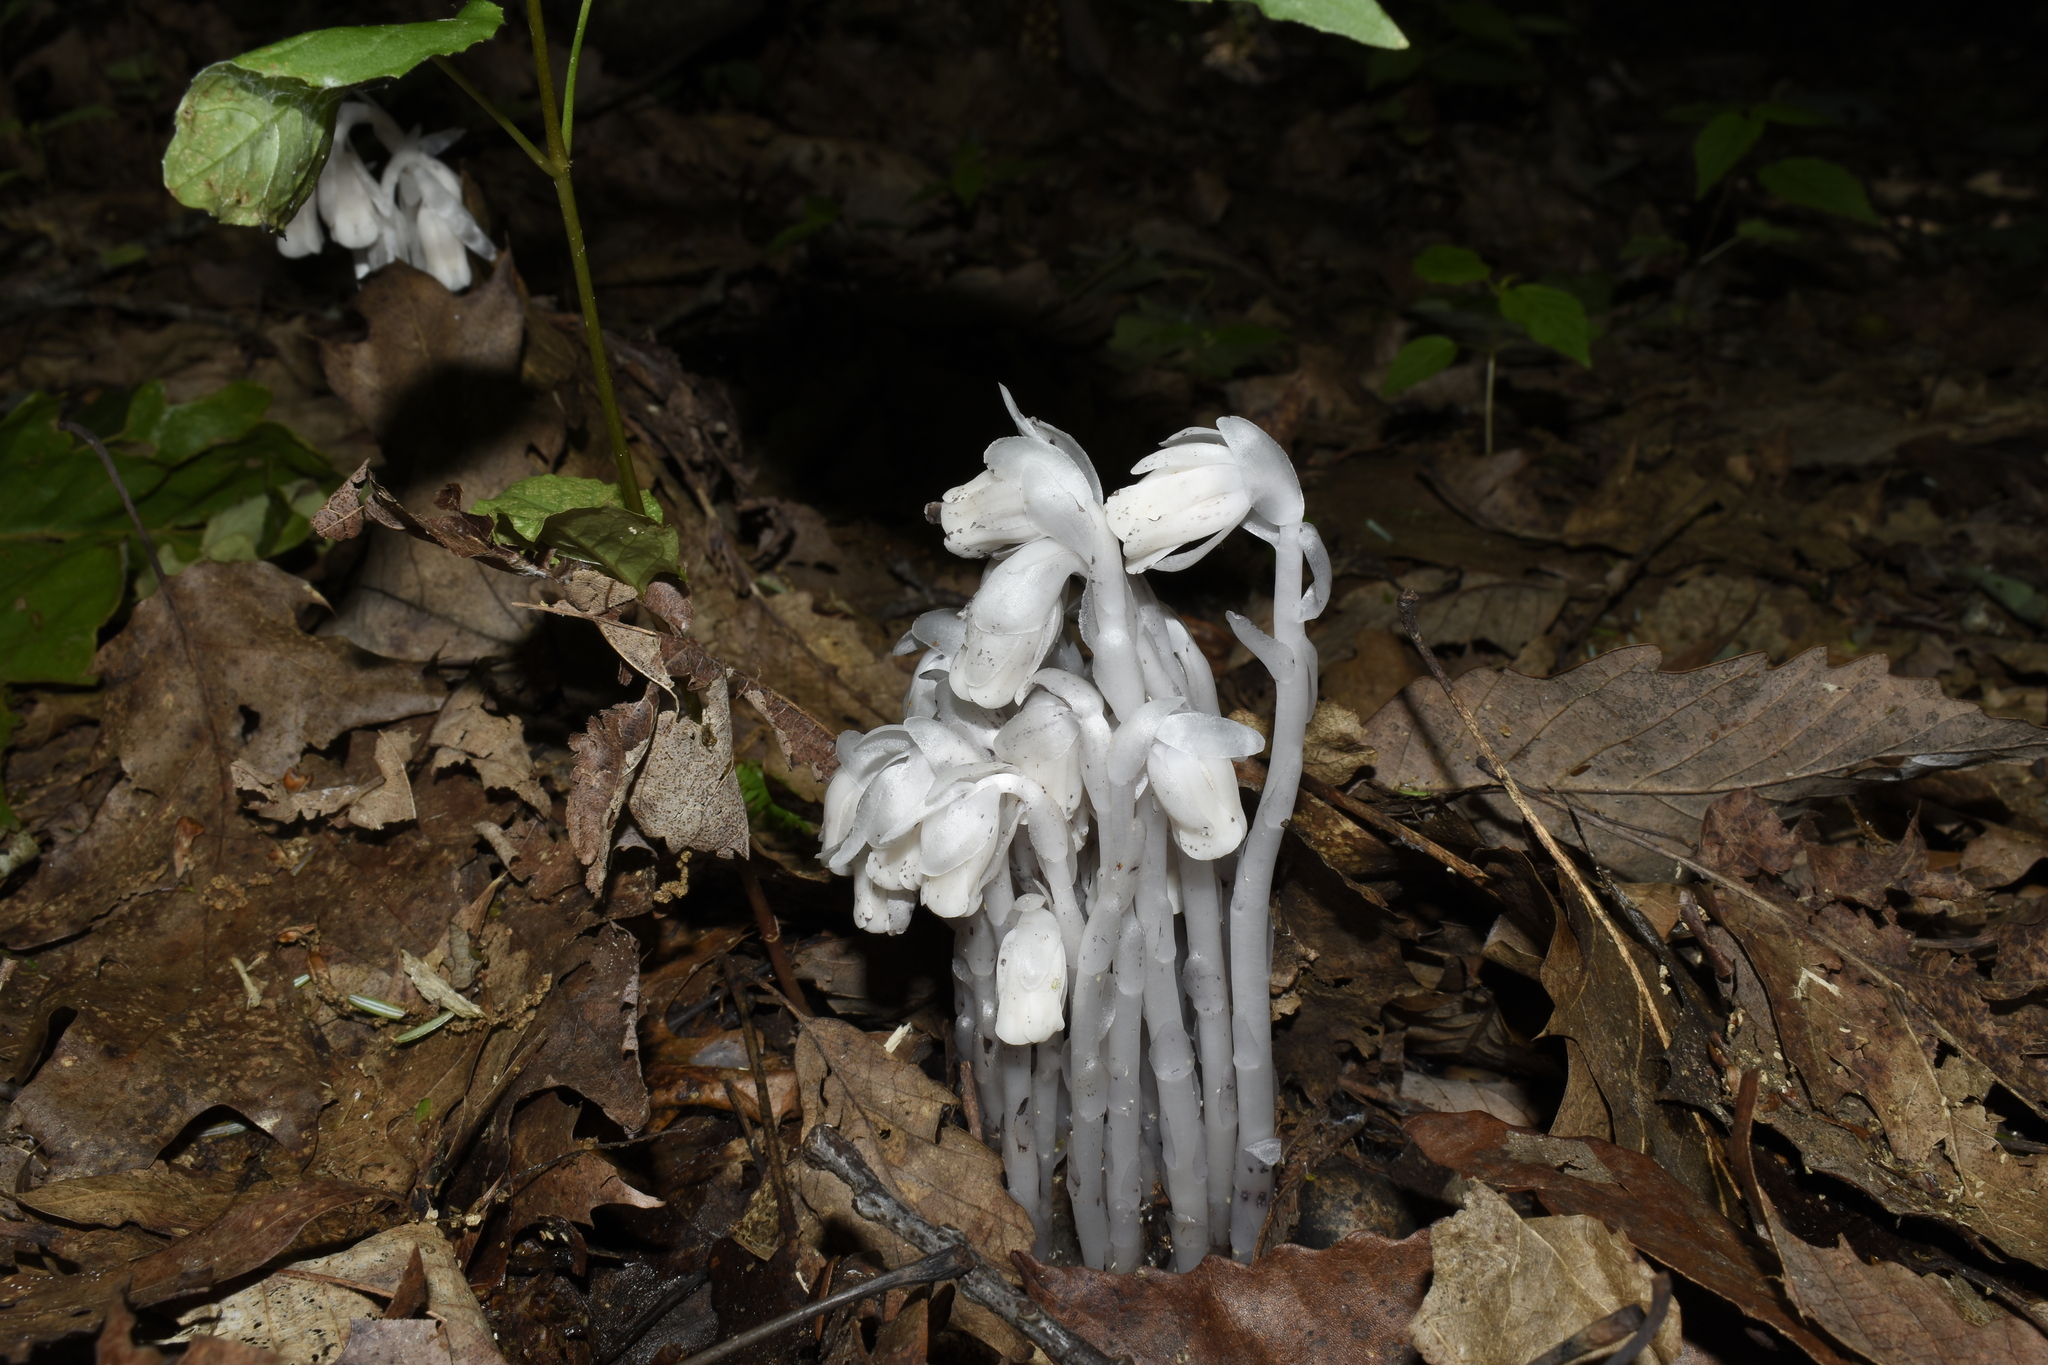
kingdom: Plantae
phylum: Tracheophyta
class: Magnoliopsida
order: Ericales
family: Ericaceae
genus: Monotropa
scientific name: Monotropa uniflora
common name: Convulsion root
